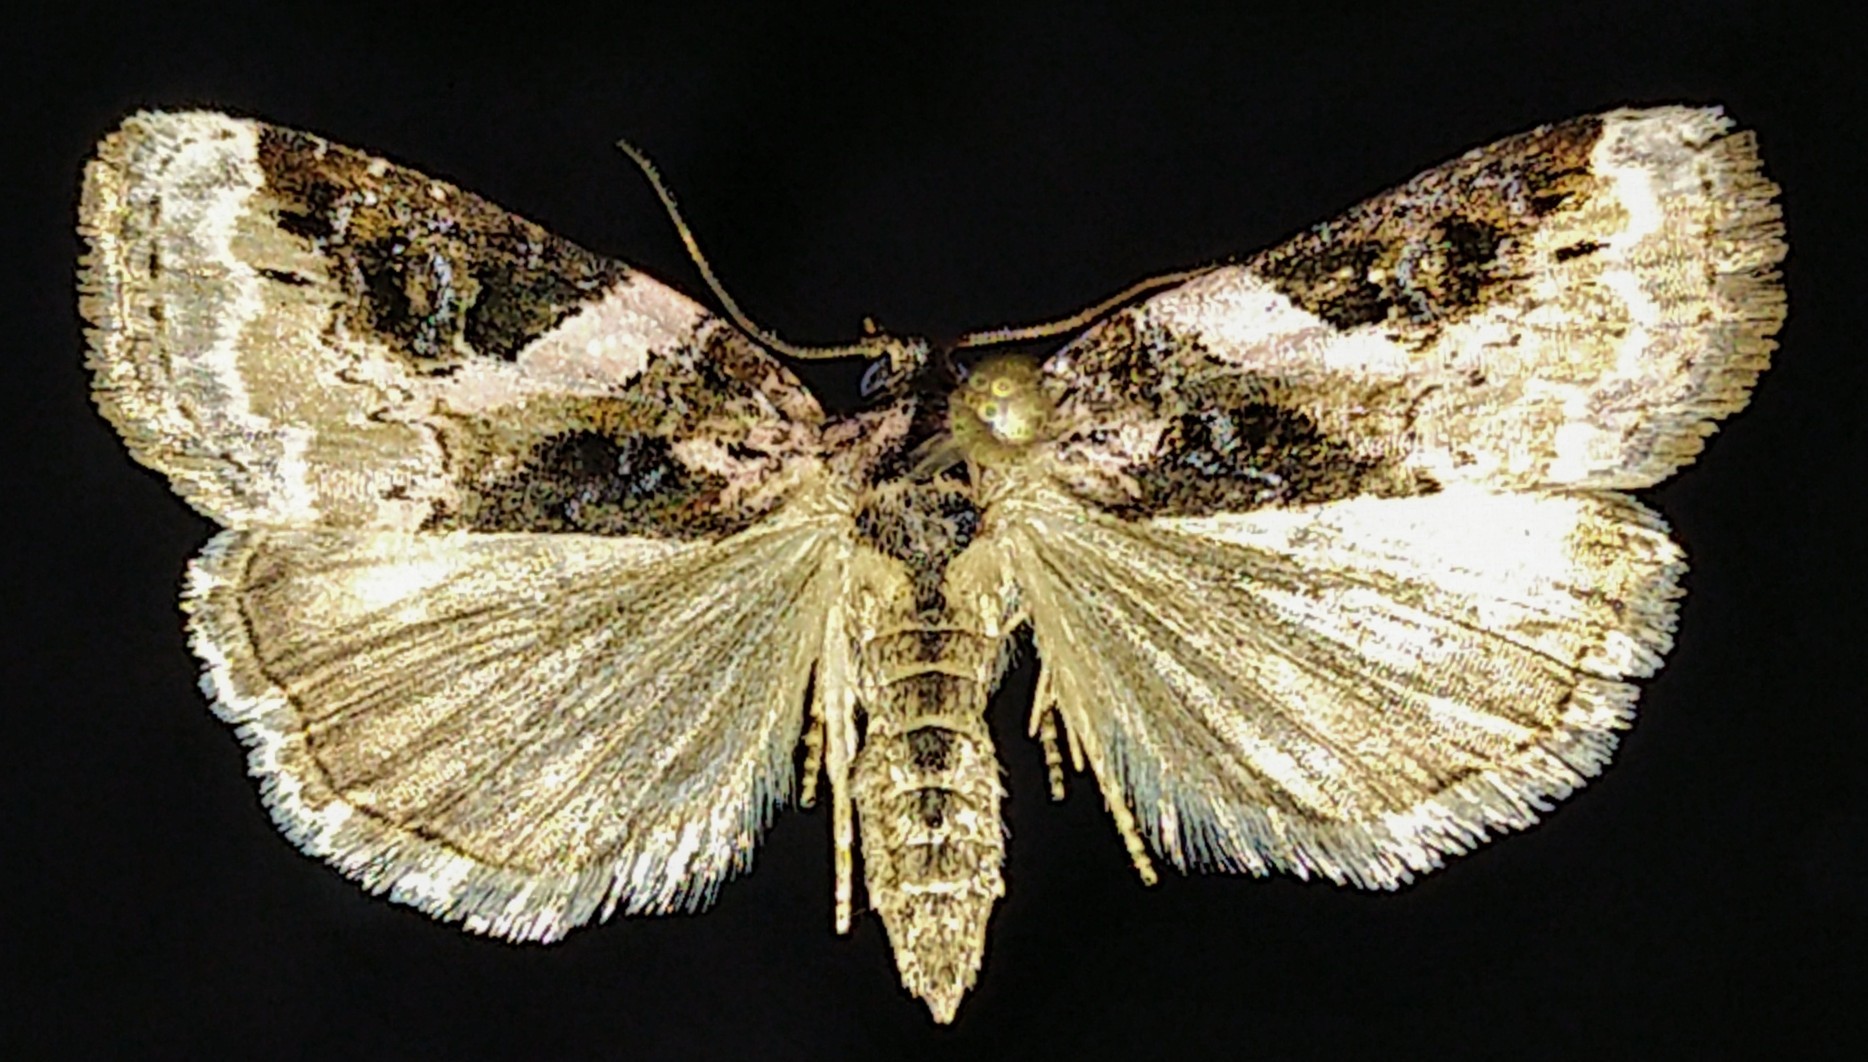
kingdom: Animalia
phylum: Arthropoda
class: Insecta
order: Lepidoptera
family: Noctuidae
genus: Pseudeustrotia
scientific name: Pseudeustrotia carneola
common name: Pink-barred lithacodia moth
